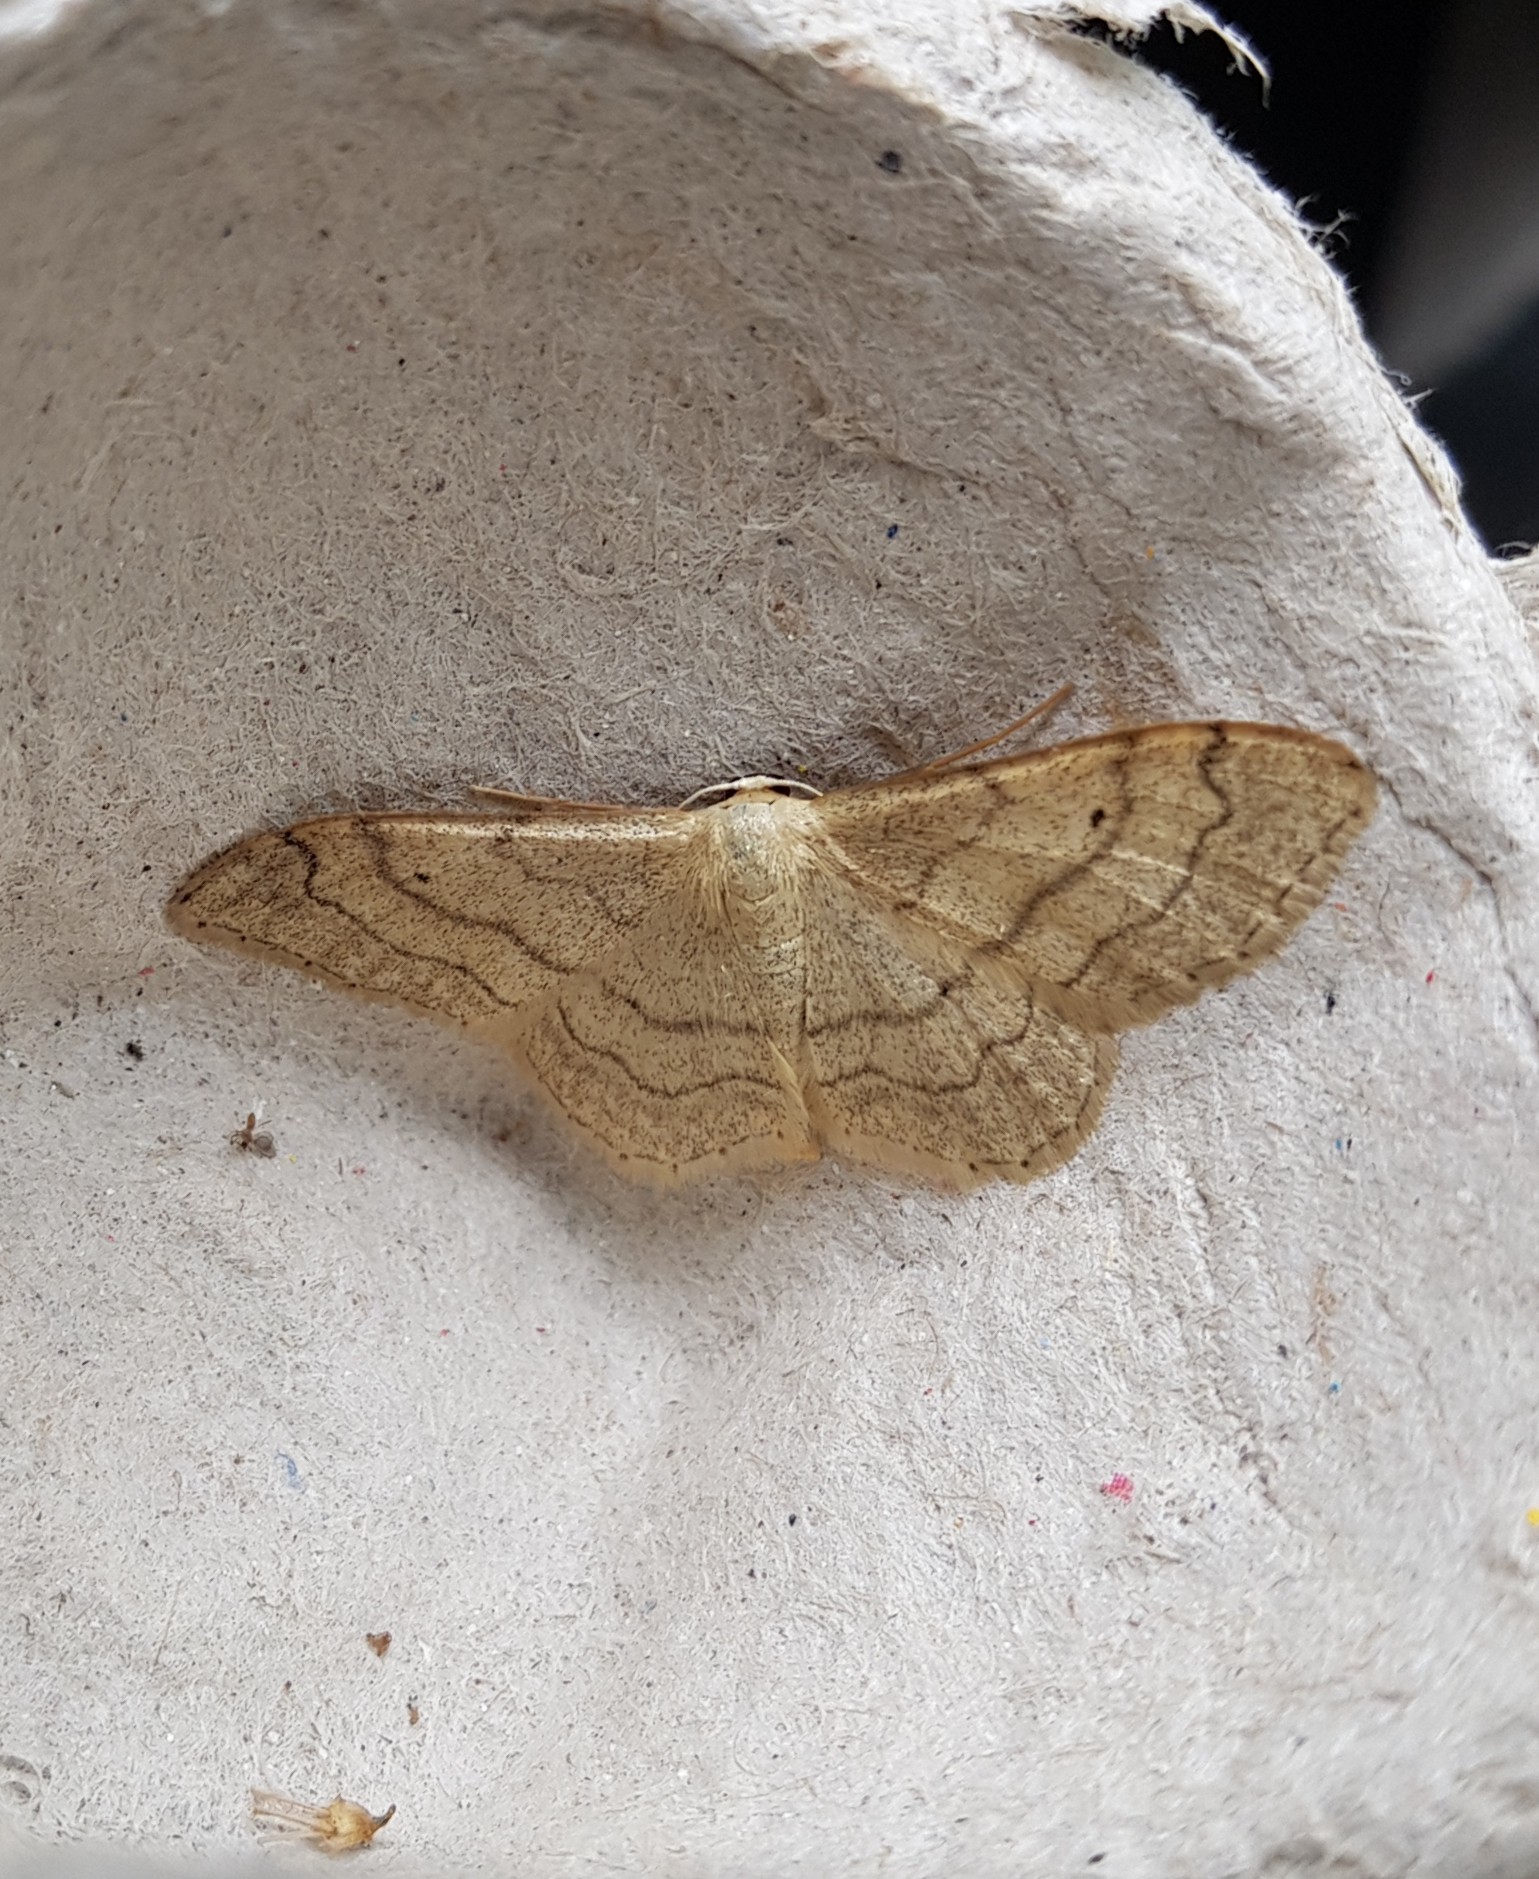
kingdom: Animalia
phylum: Arthropoda
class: Insecta
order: Lepidoptera
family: Geometridae
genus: Idaea
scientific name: Idaea aversata
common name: Riband wave
